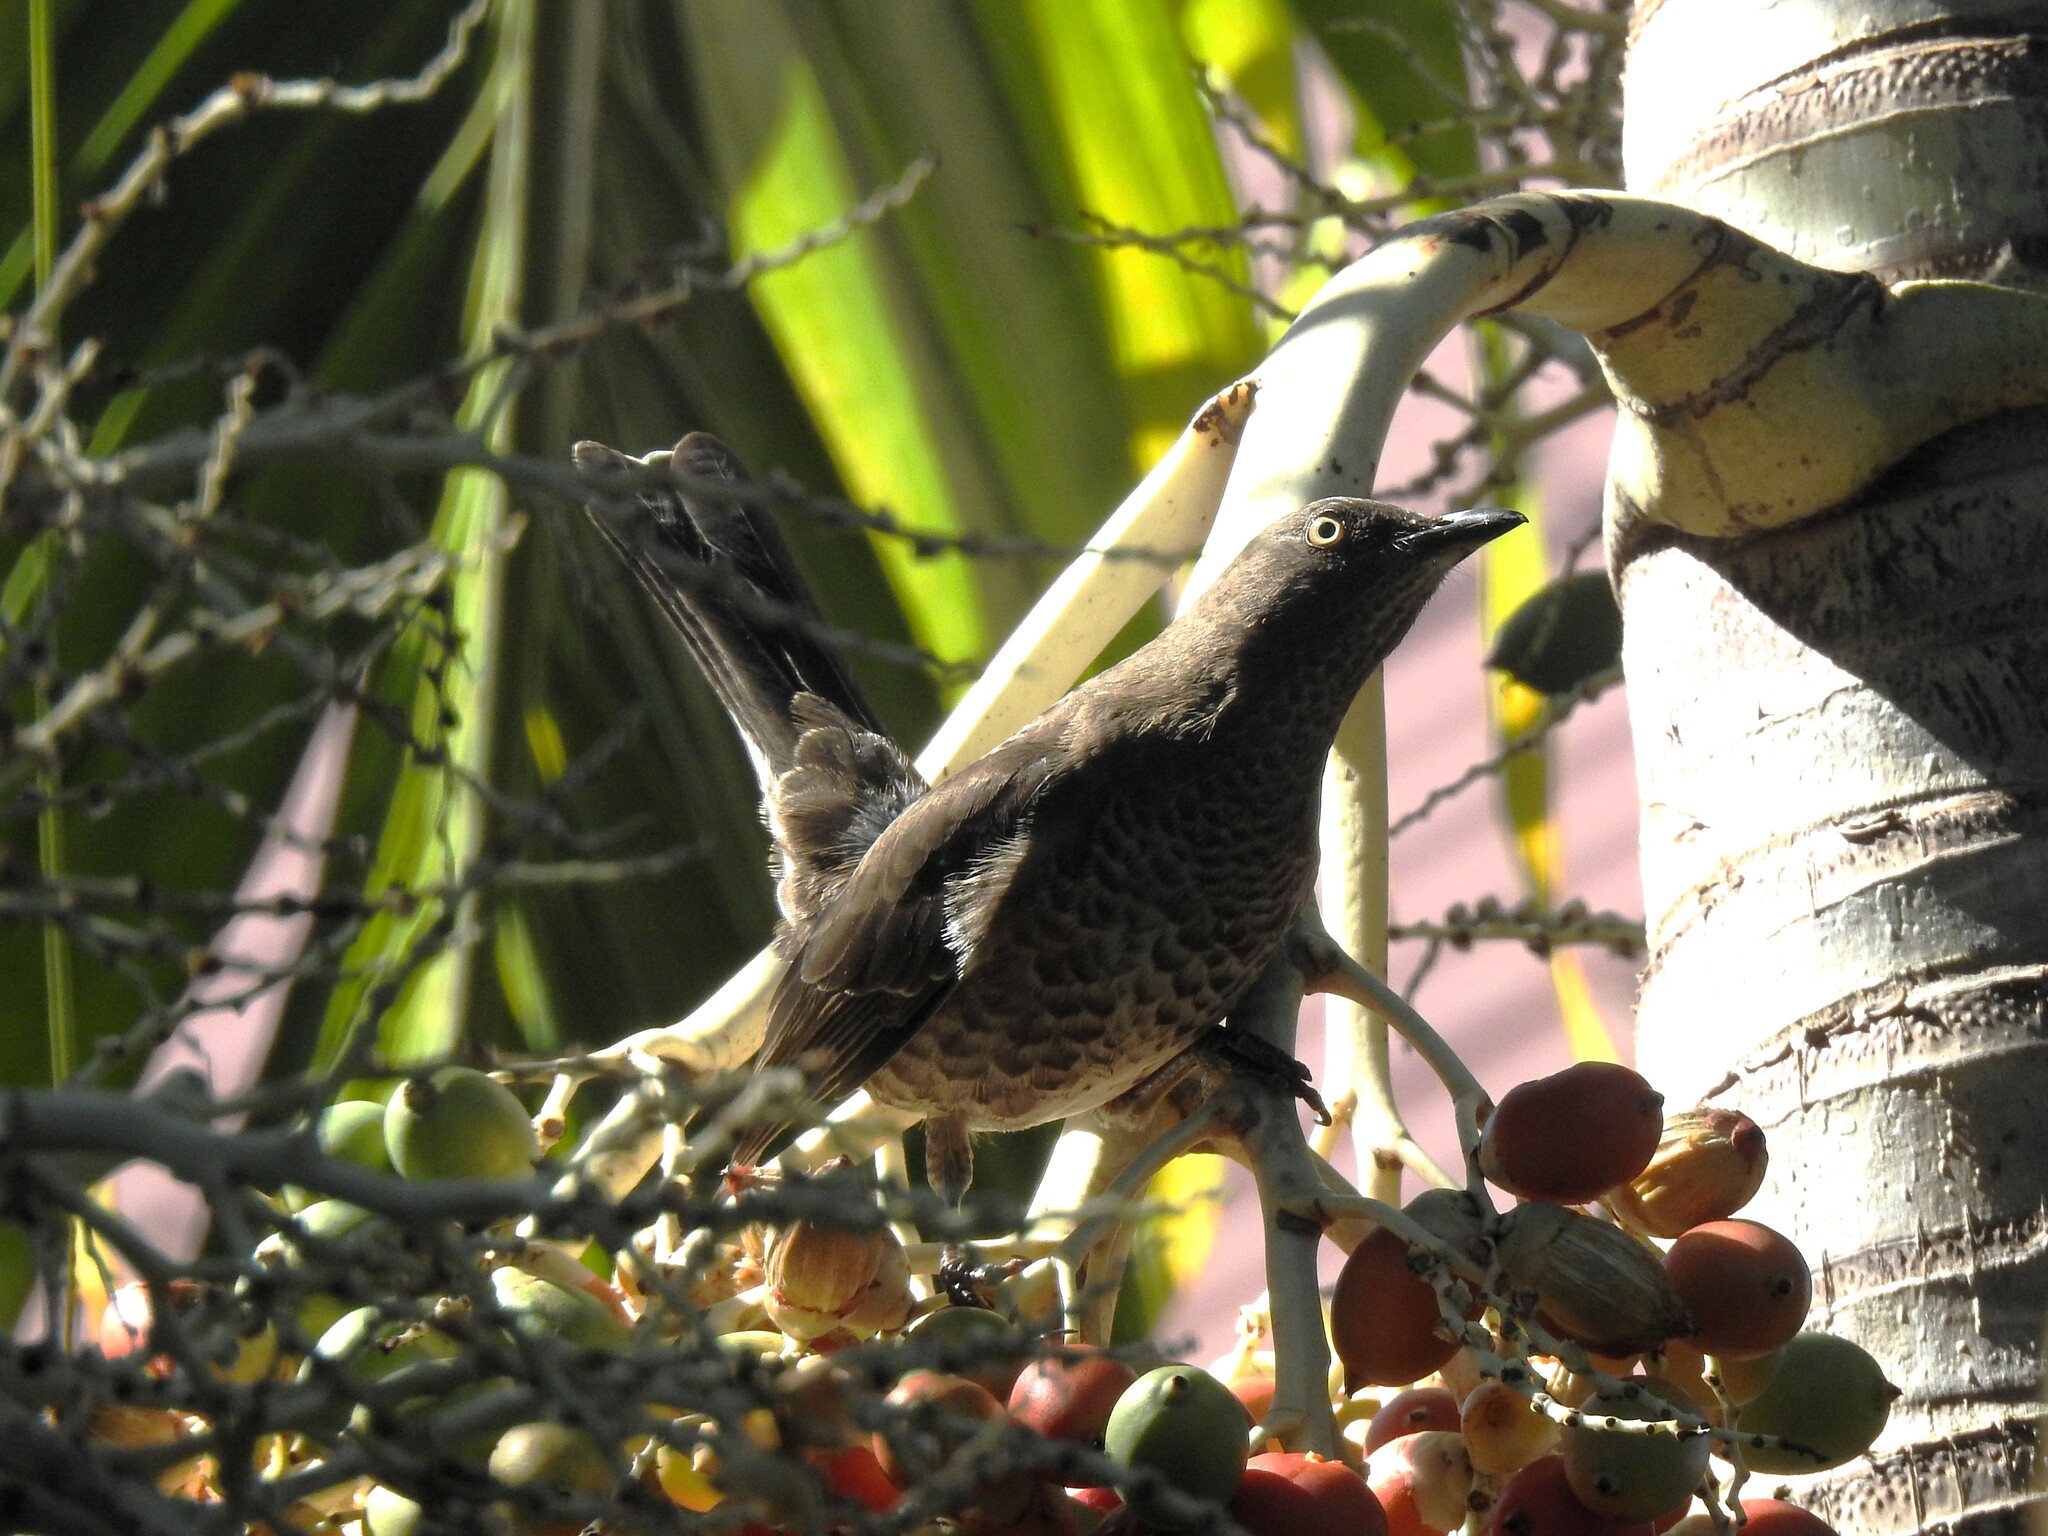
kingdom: Animalia
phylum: Chordata
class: Aves
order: Passeriformes
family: Mimidae
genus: Allenia
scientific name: Allenia fusca
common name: Scaly-breasted thrasher
